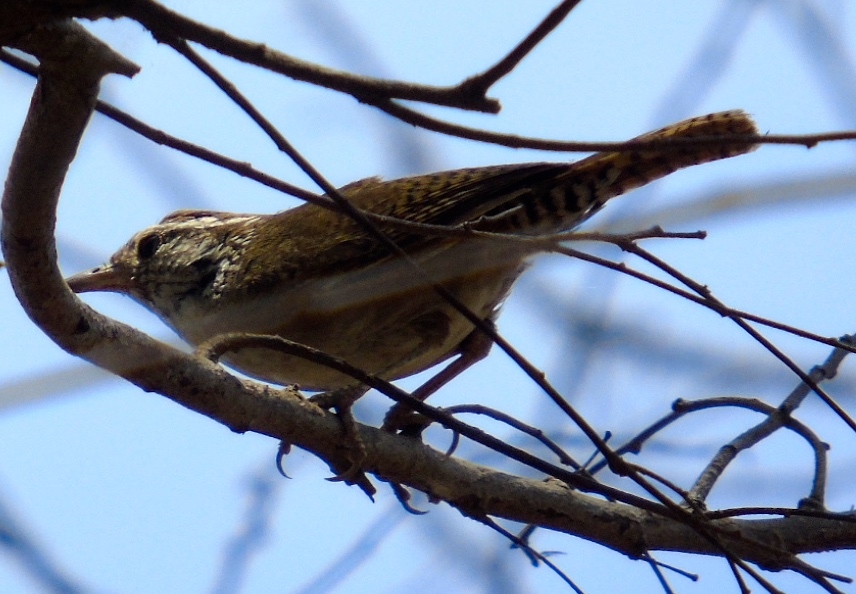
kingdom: Animalia
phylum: Chordata
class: Aves
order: Passeriformes
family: Troglodytidae
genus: Thryophilus
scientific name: Thryophilus sinaloa
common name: Sinaloa wren
